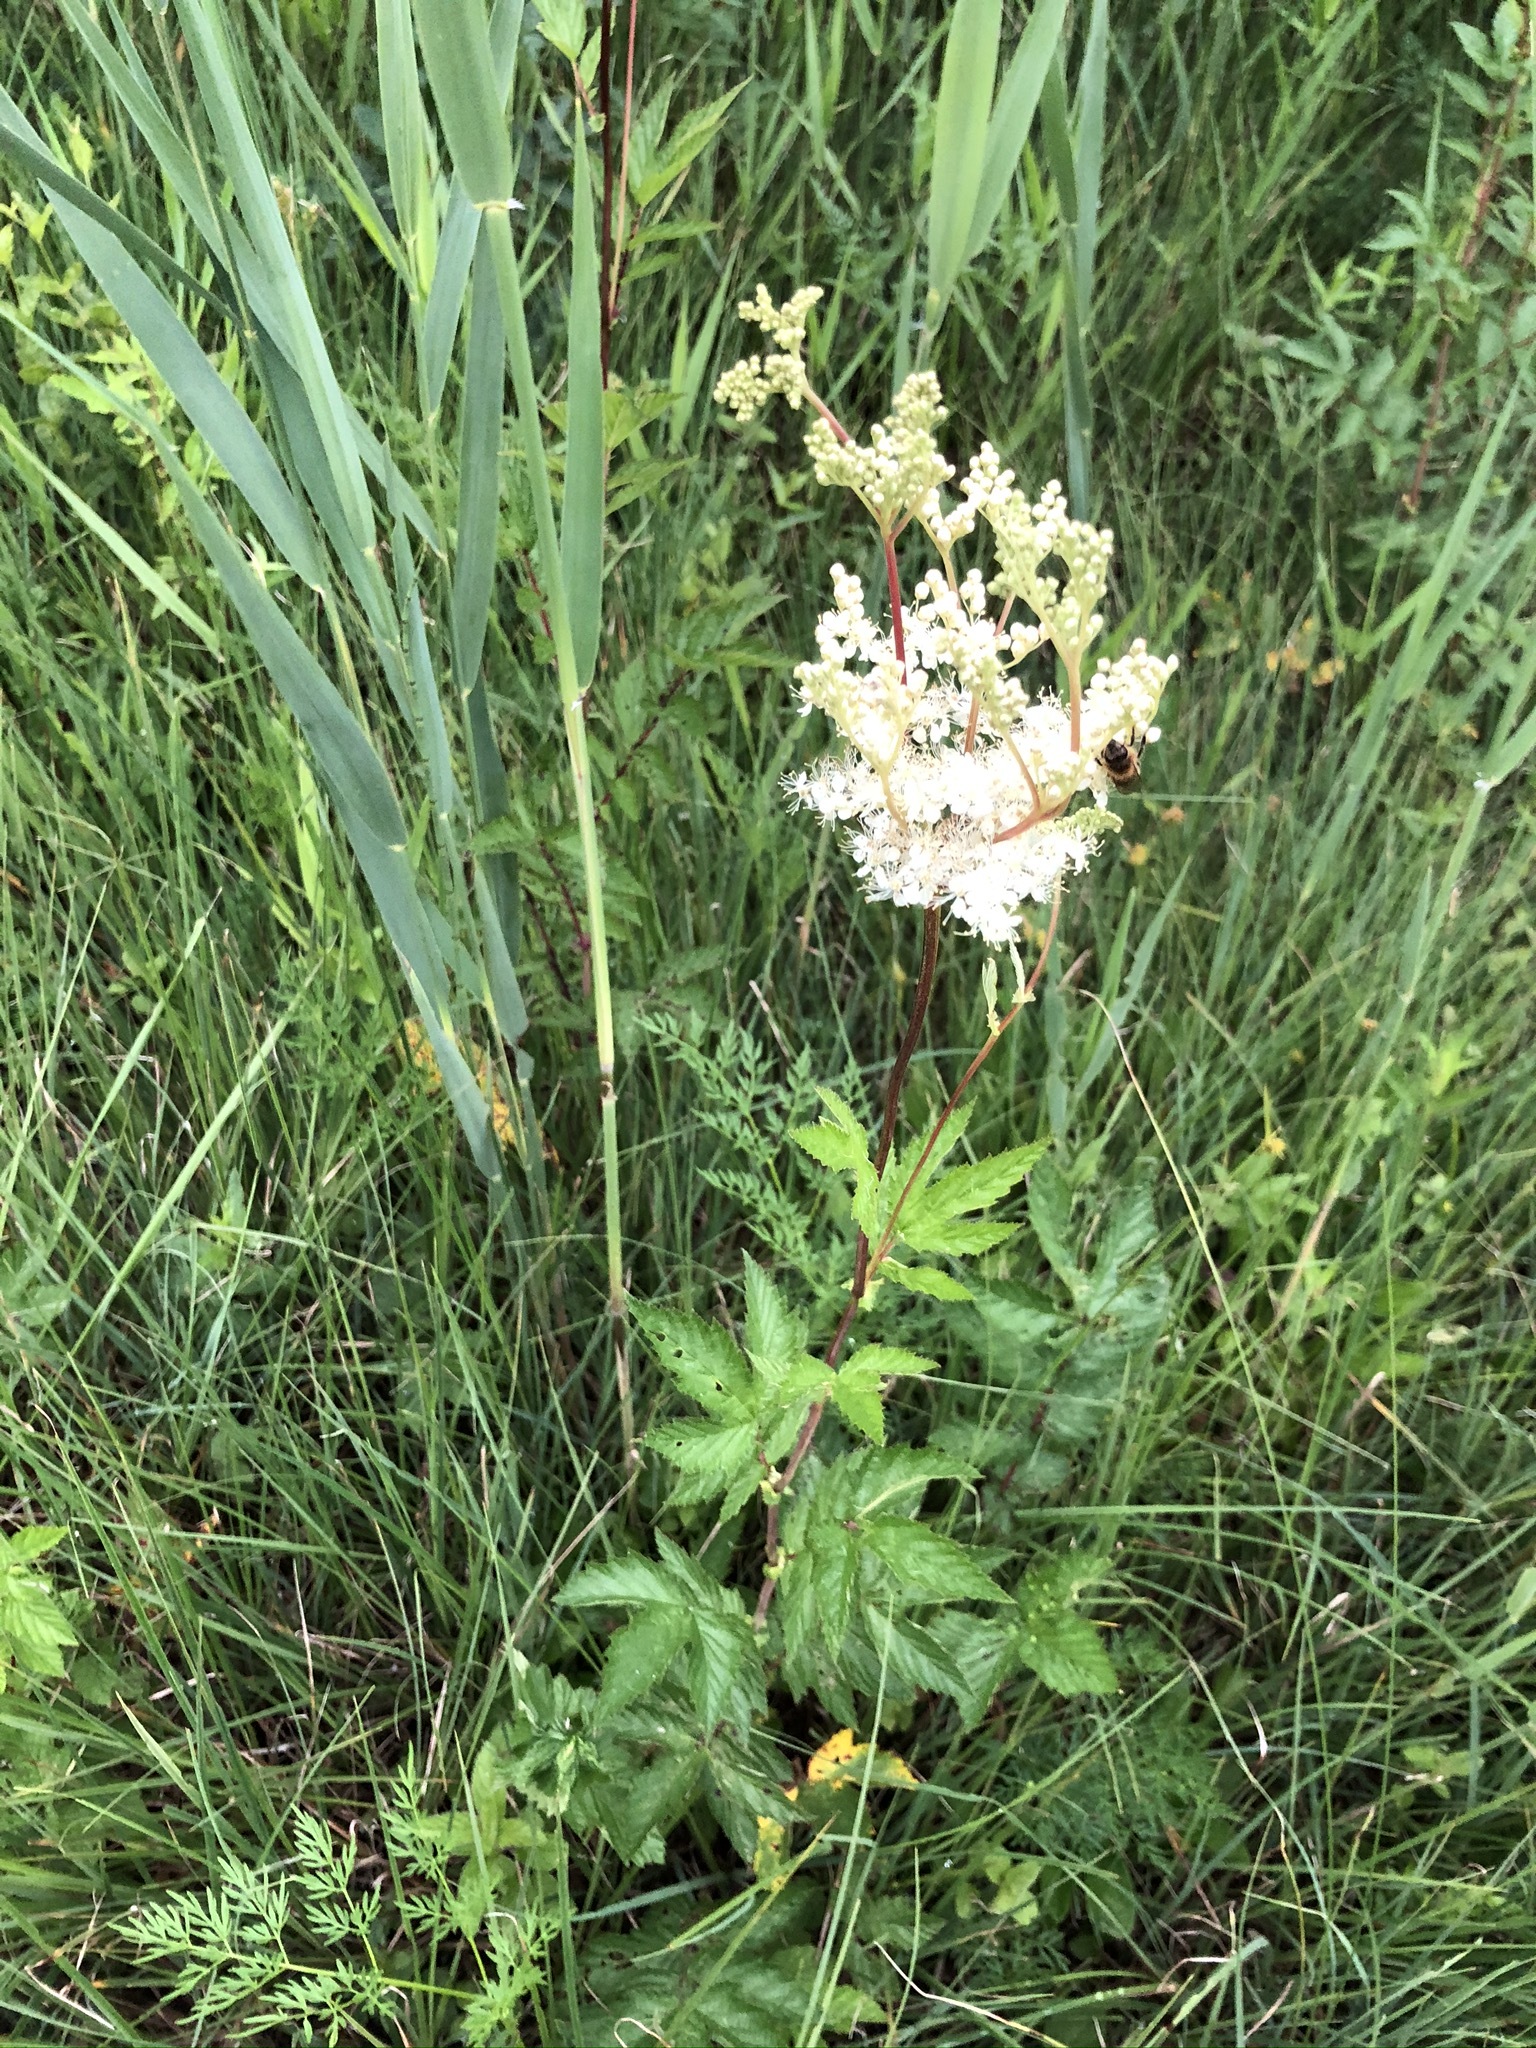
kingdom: Plantae
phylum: Tracheophyta
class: Magnoliopsida
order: Rosales
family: Rosaceae
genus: Filipendula
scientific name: Filipendula ulmaria
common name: Meadowsweet
